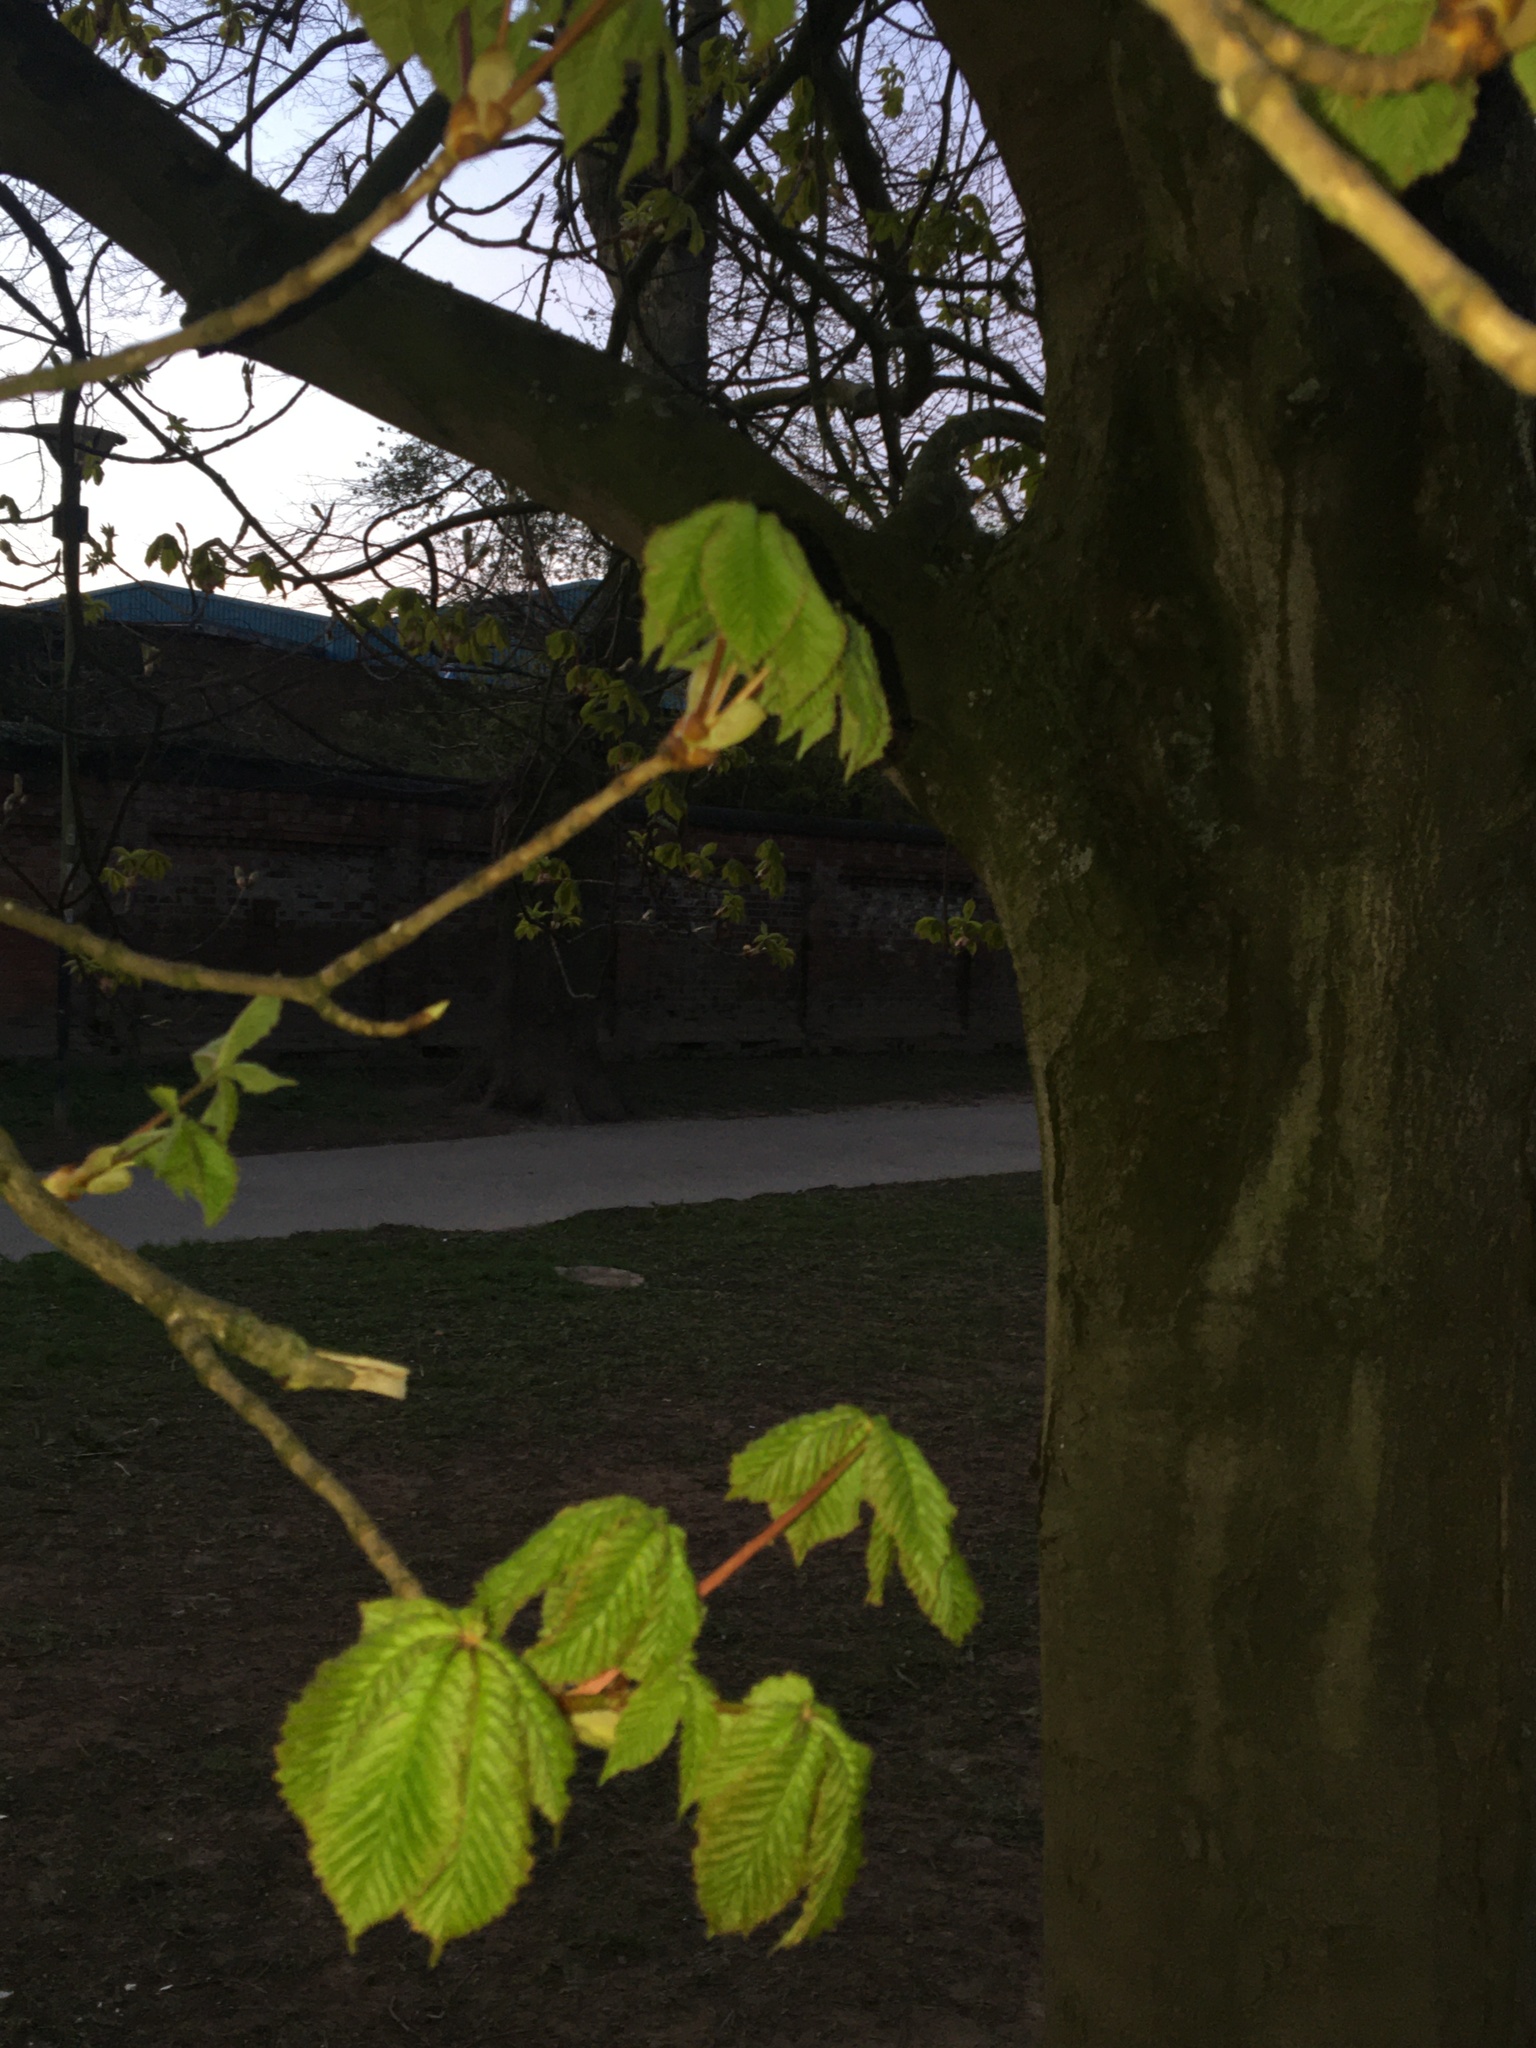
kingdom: Plantae
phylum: Tracheophyta
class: Magnoliopsida
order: Sapindales
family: Sapindaceae
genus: Aesculus
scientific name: Aesculus hippocastanum
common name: Horse-chestnut
